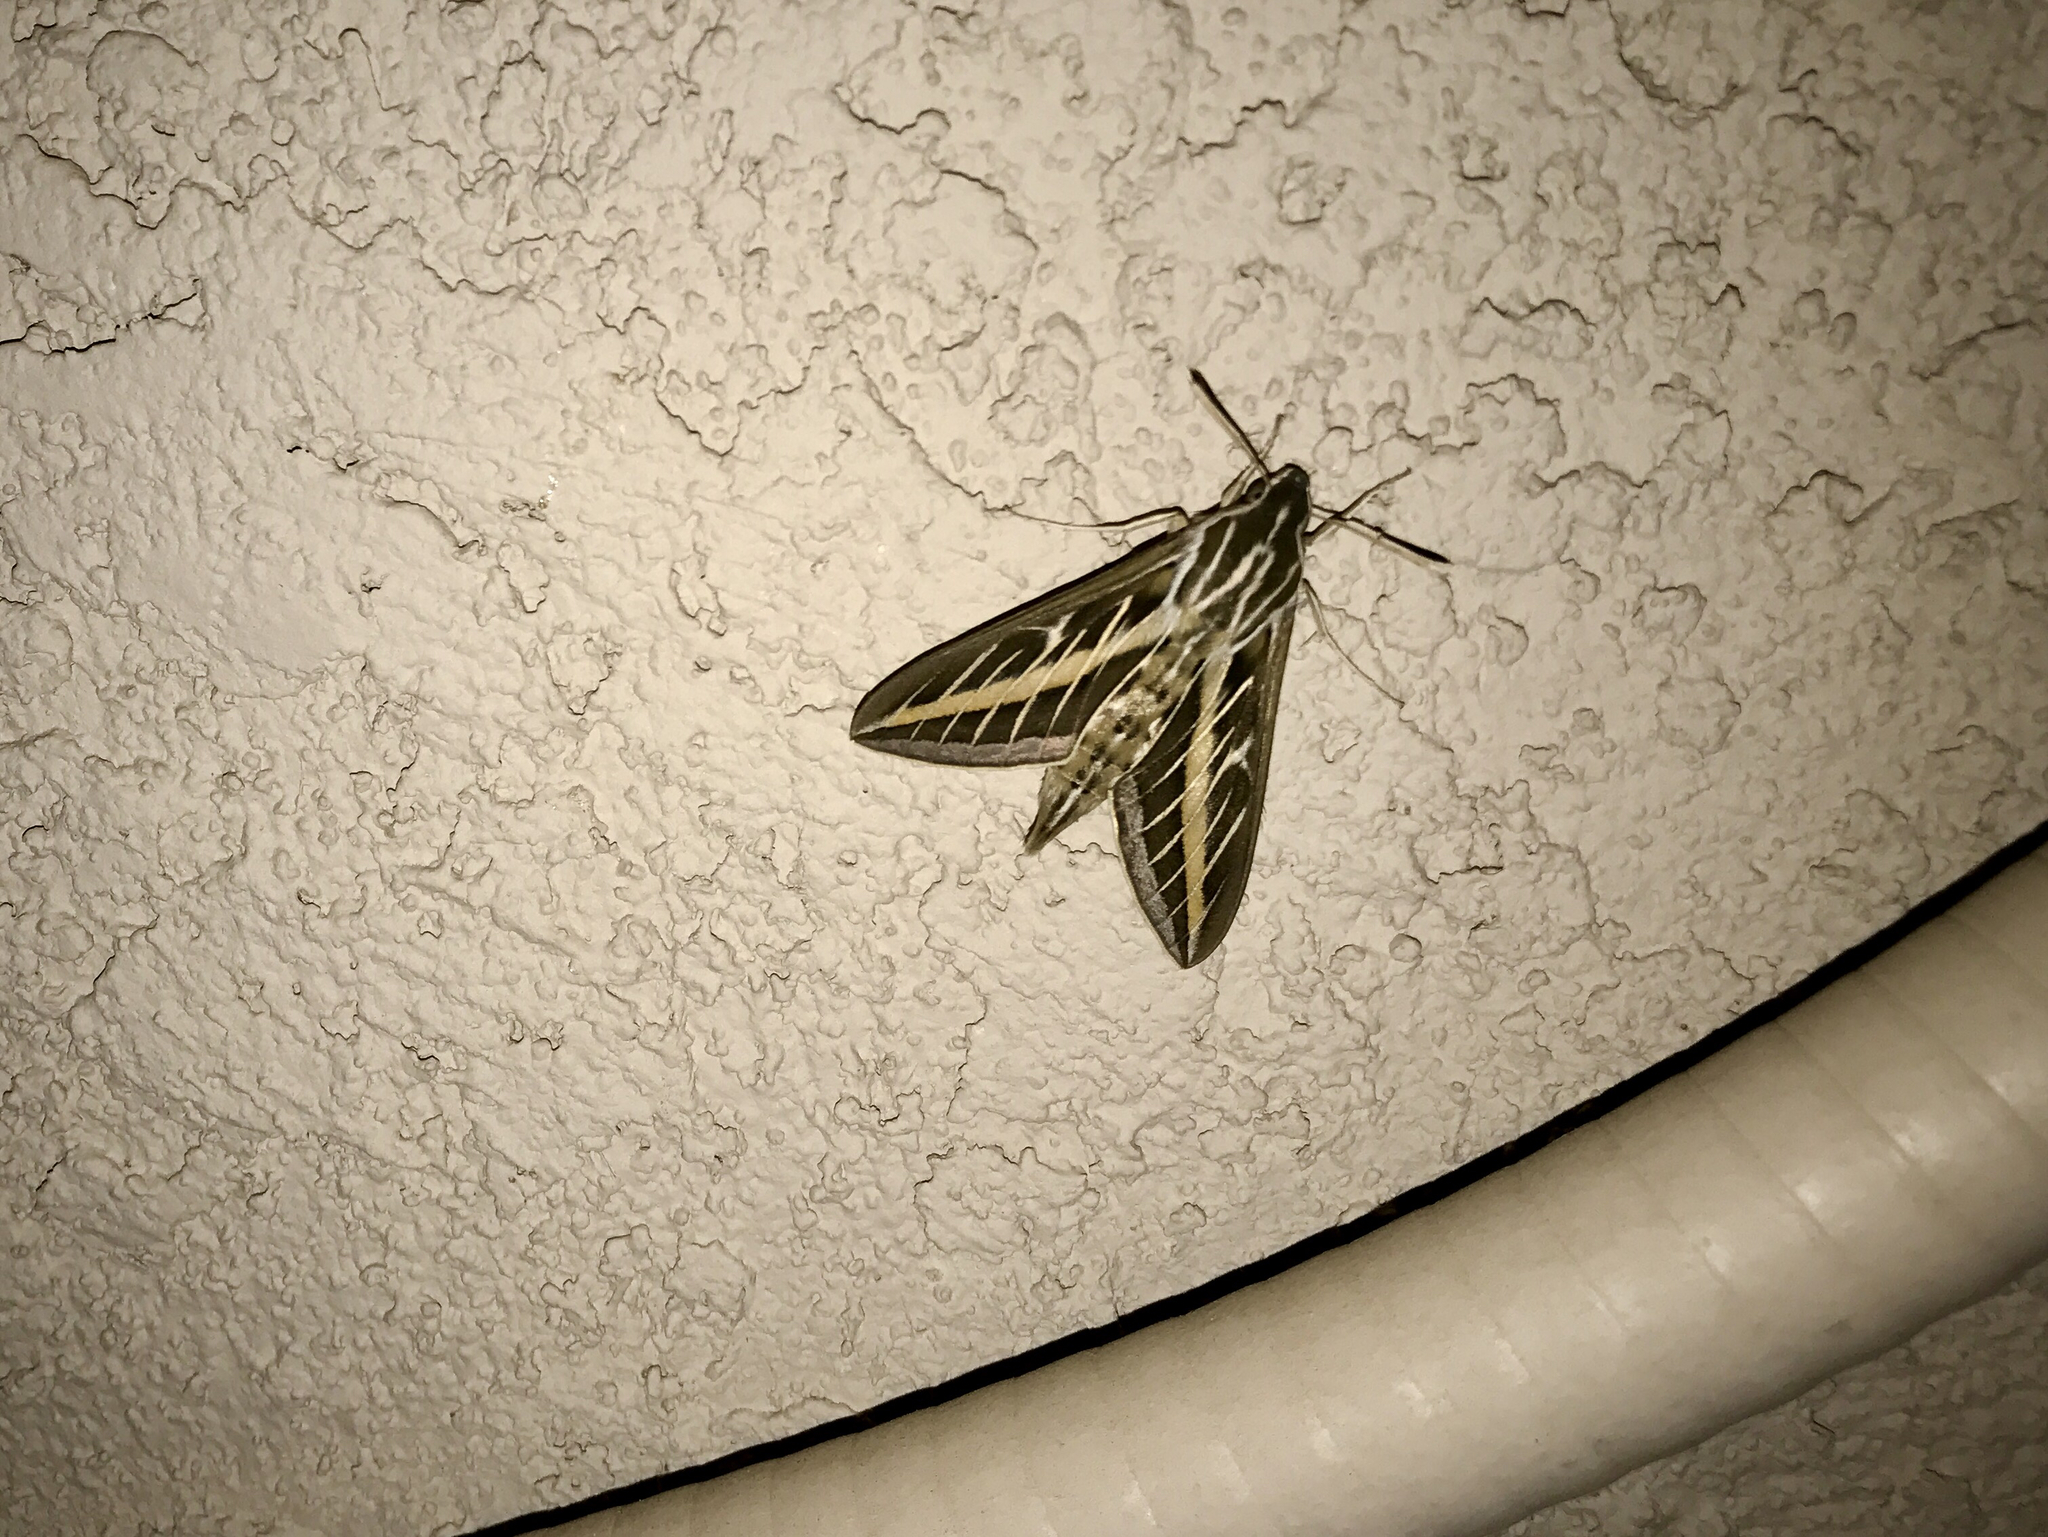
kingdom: Animalia
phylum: Arthropoda
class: Insecta
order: Lepidoptera
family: Sphingidae
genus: Hyles
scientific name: Hyles lineata
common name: White-lined sphinx
